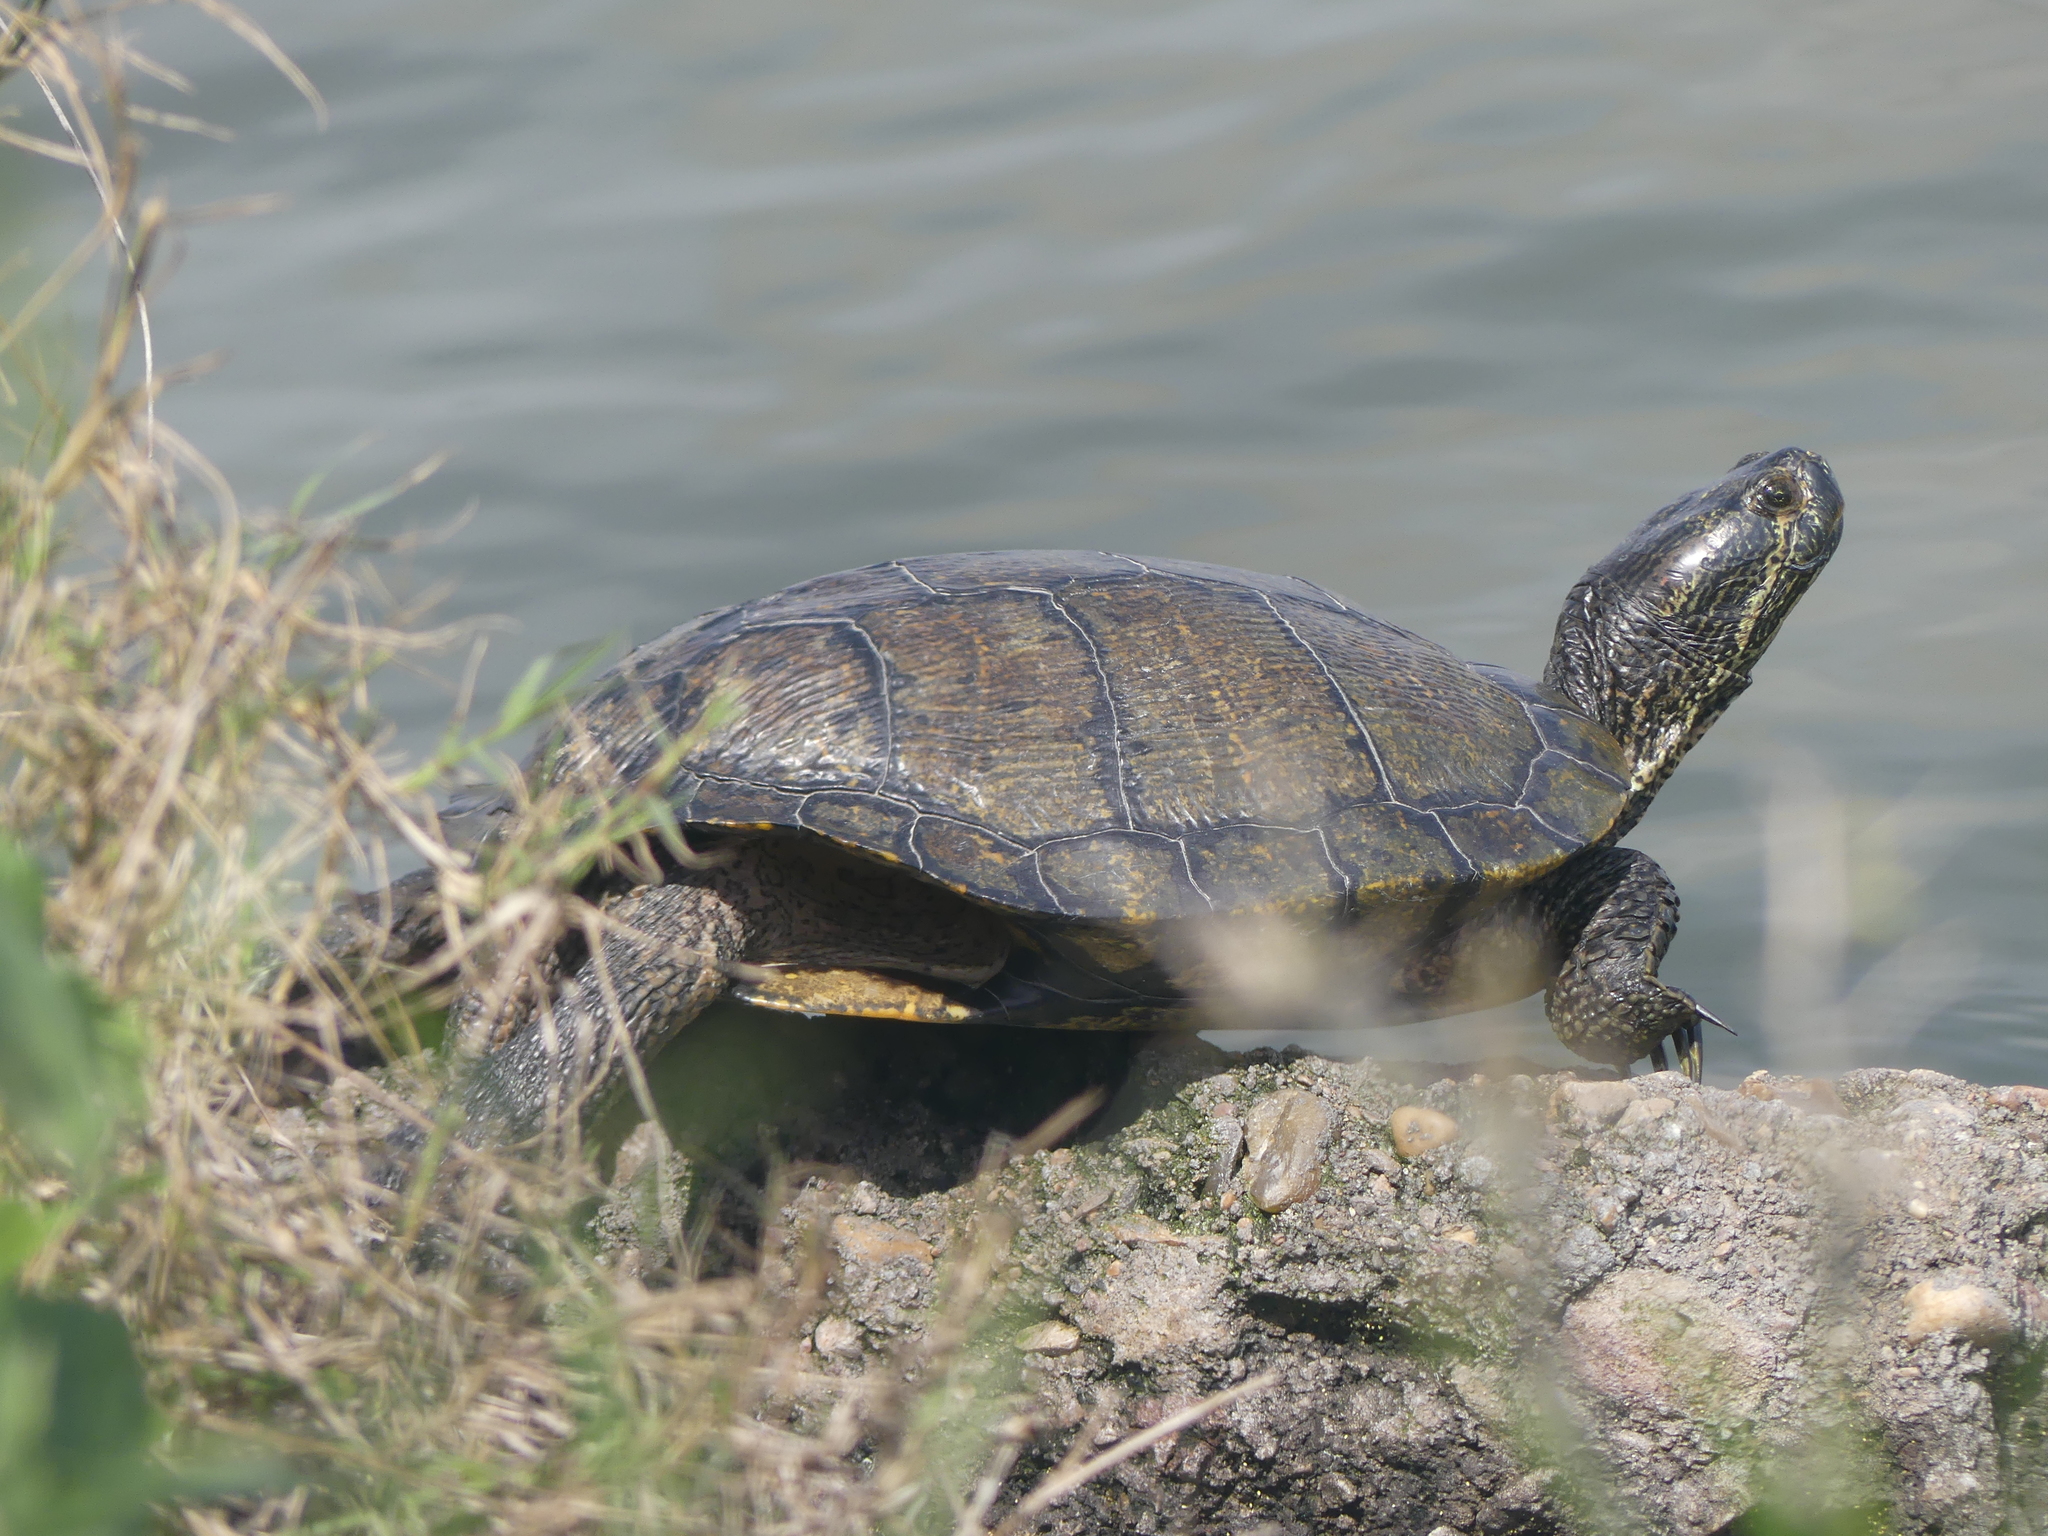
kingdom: Animalia
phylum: Chordata
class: Testudines
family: Emydidae
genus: Trachemys
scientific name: Trachemys scripta
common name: Slider
